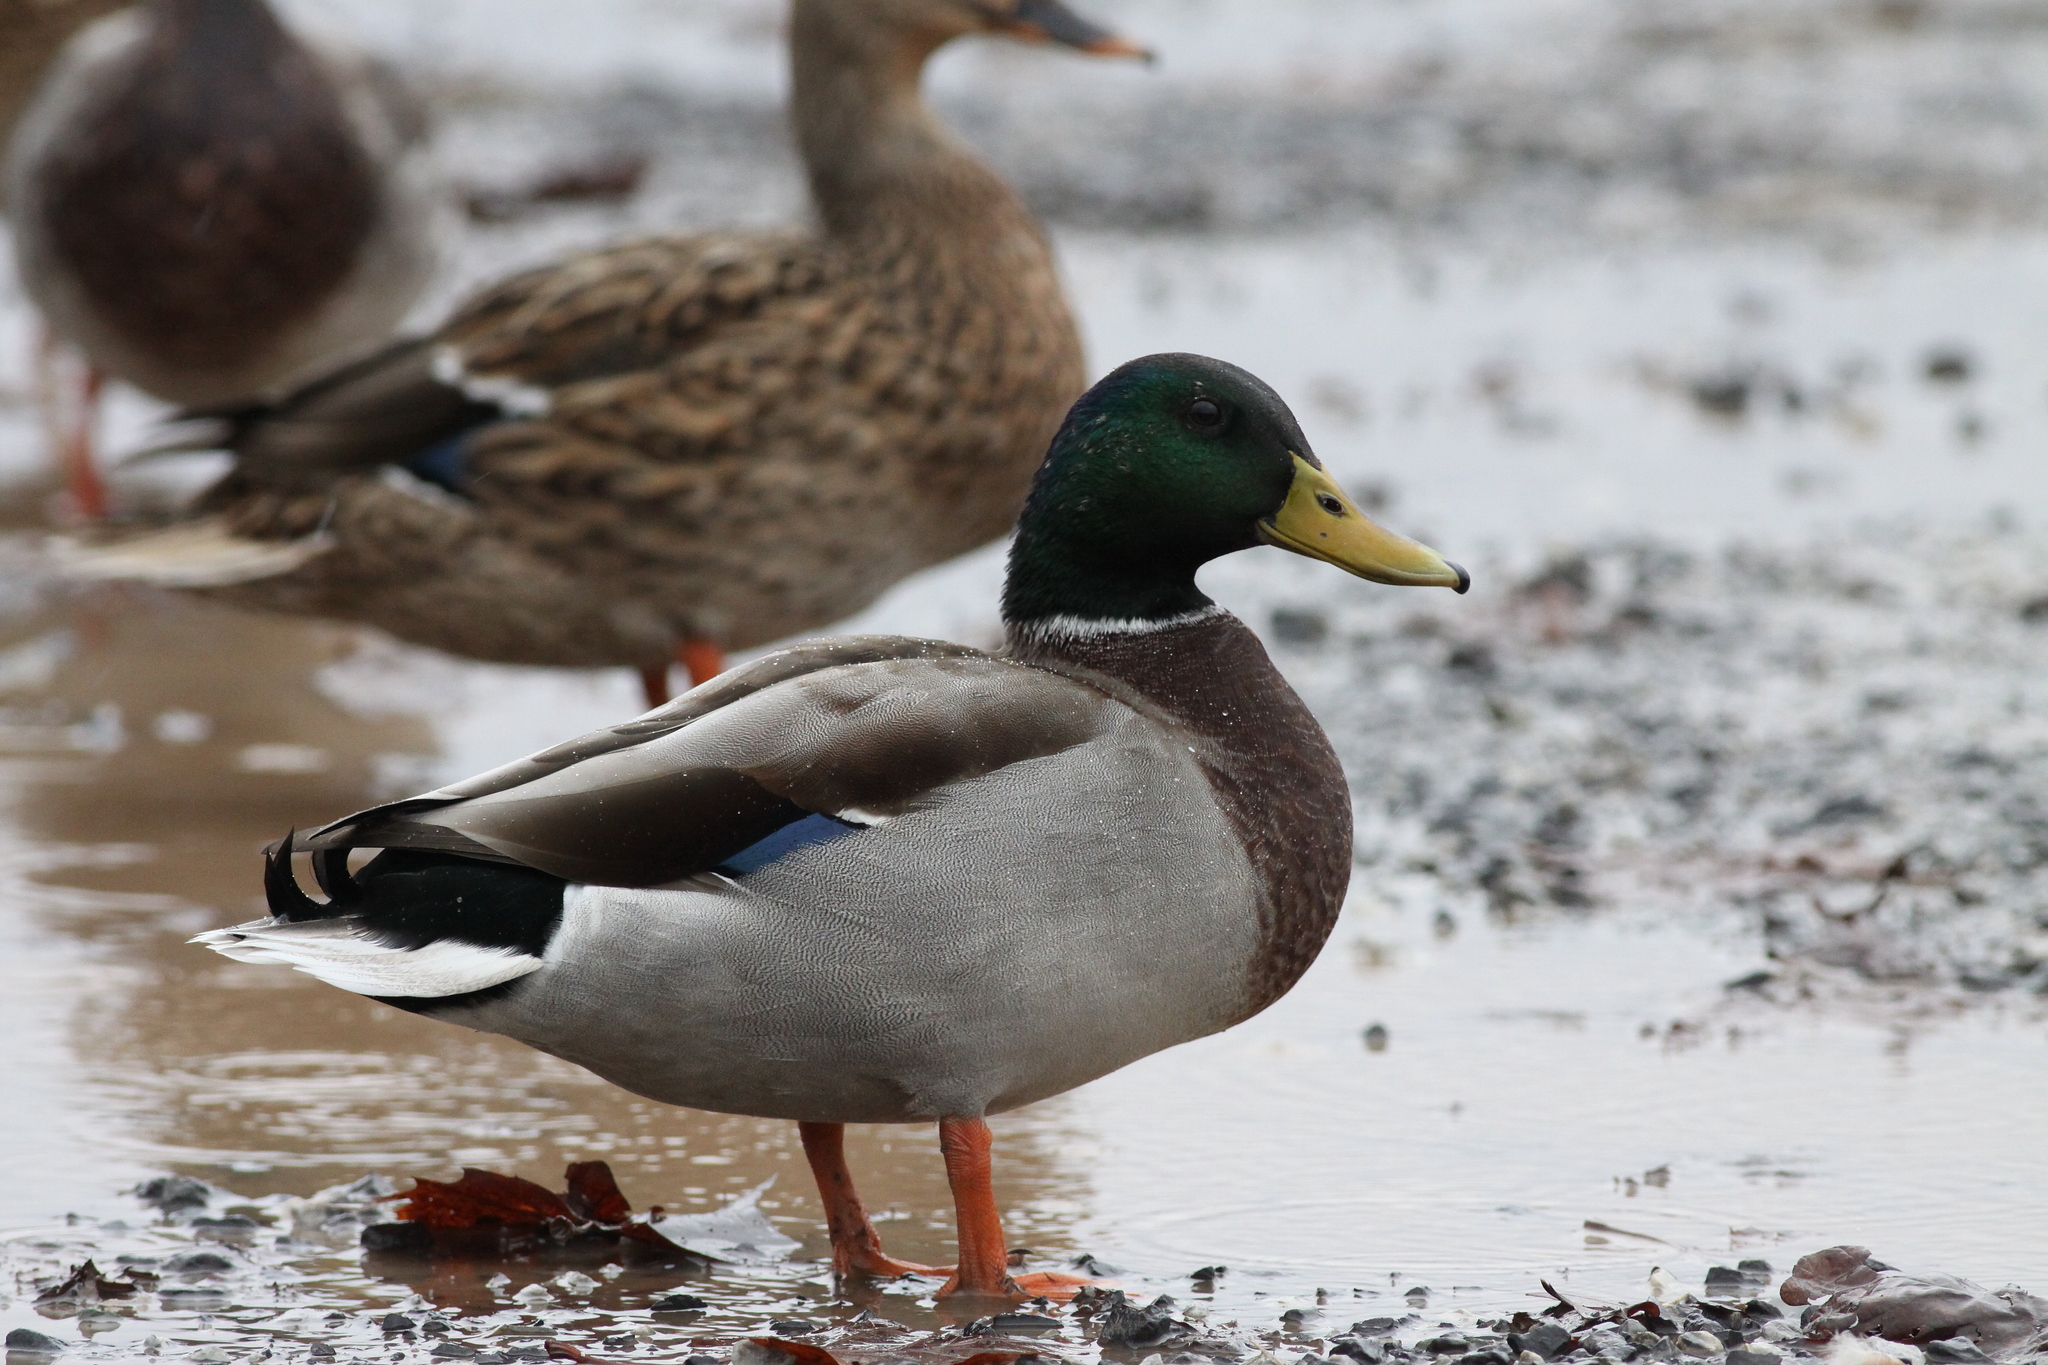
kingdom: Animalia
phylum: Chordata
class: Aves
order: Anseriformes
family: Anatidae
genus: Anas
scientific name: Anas platyrhynchos
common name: Mallard
